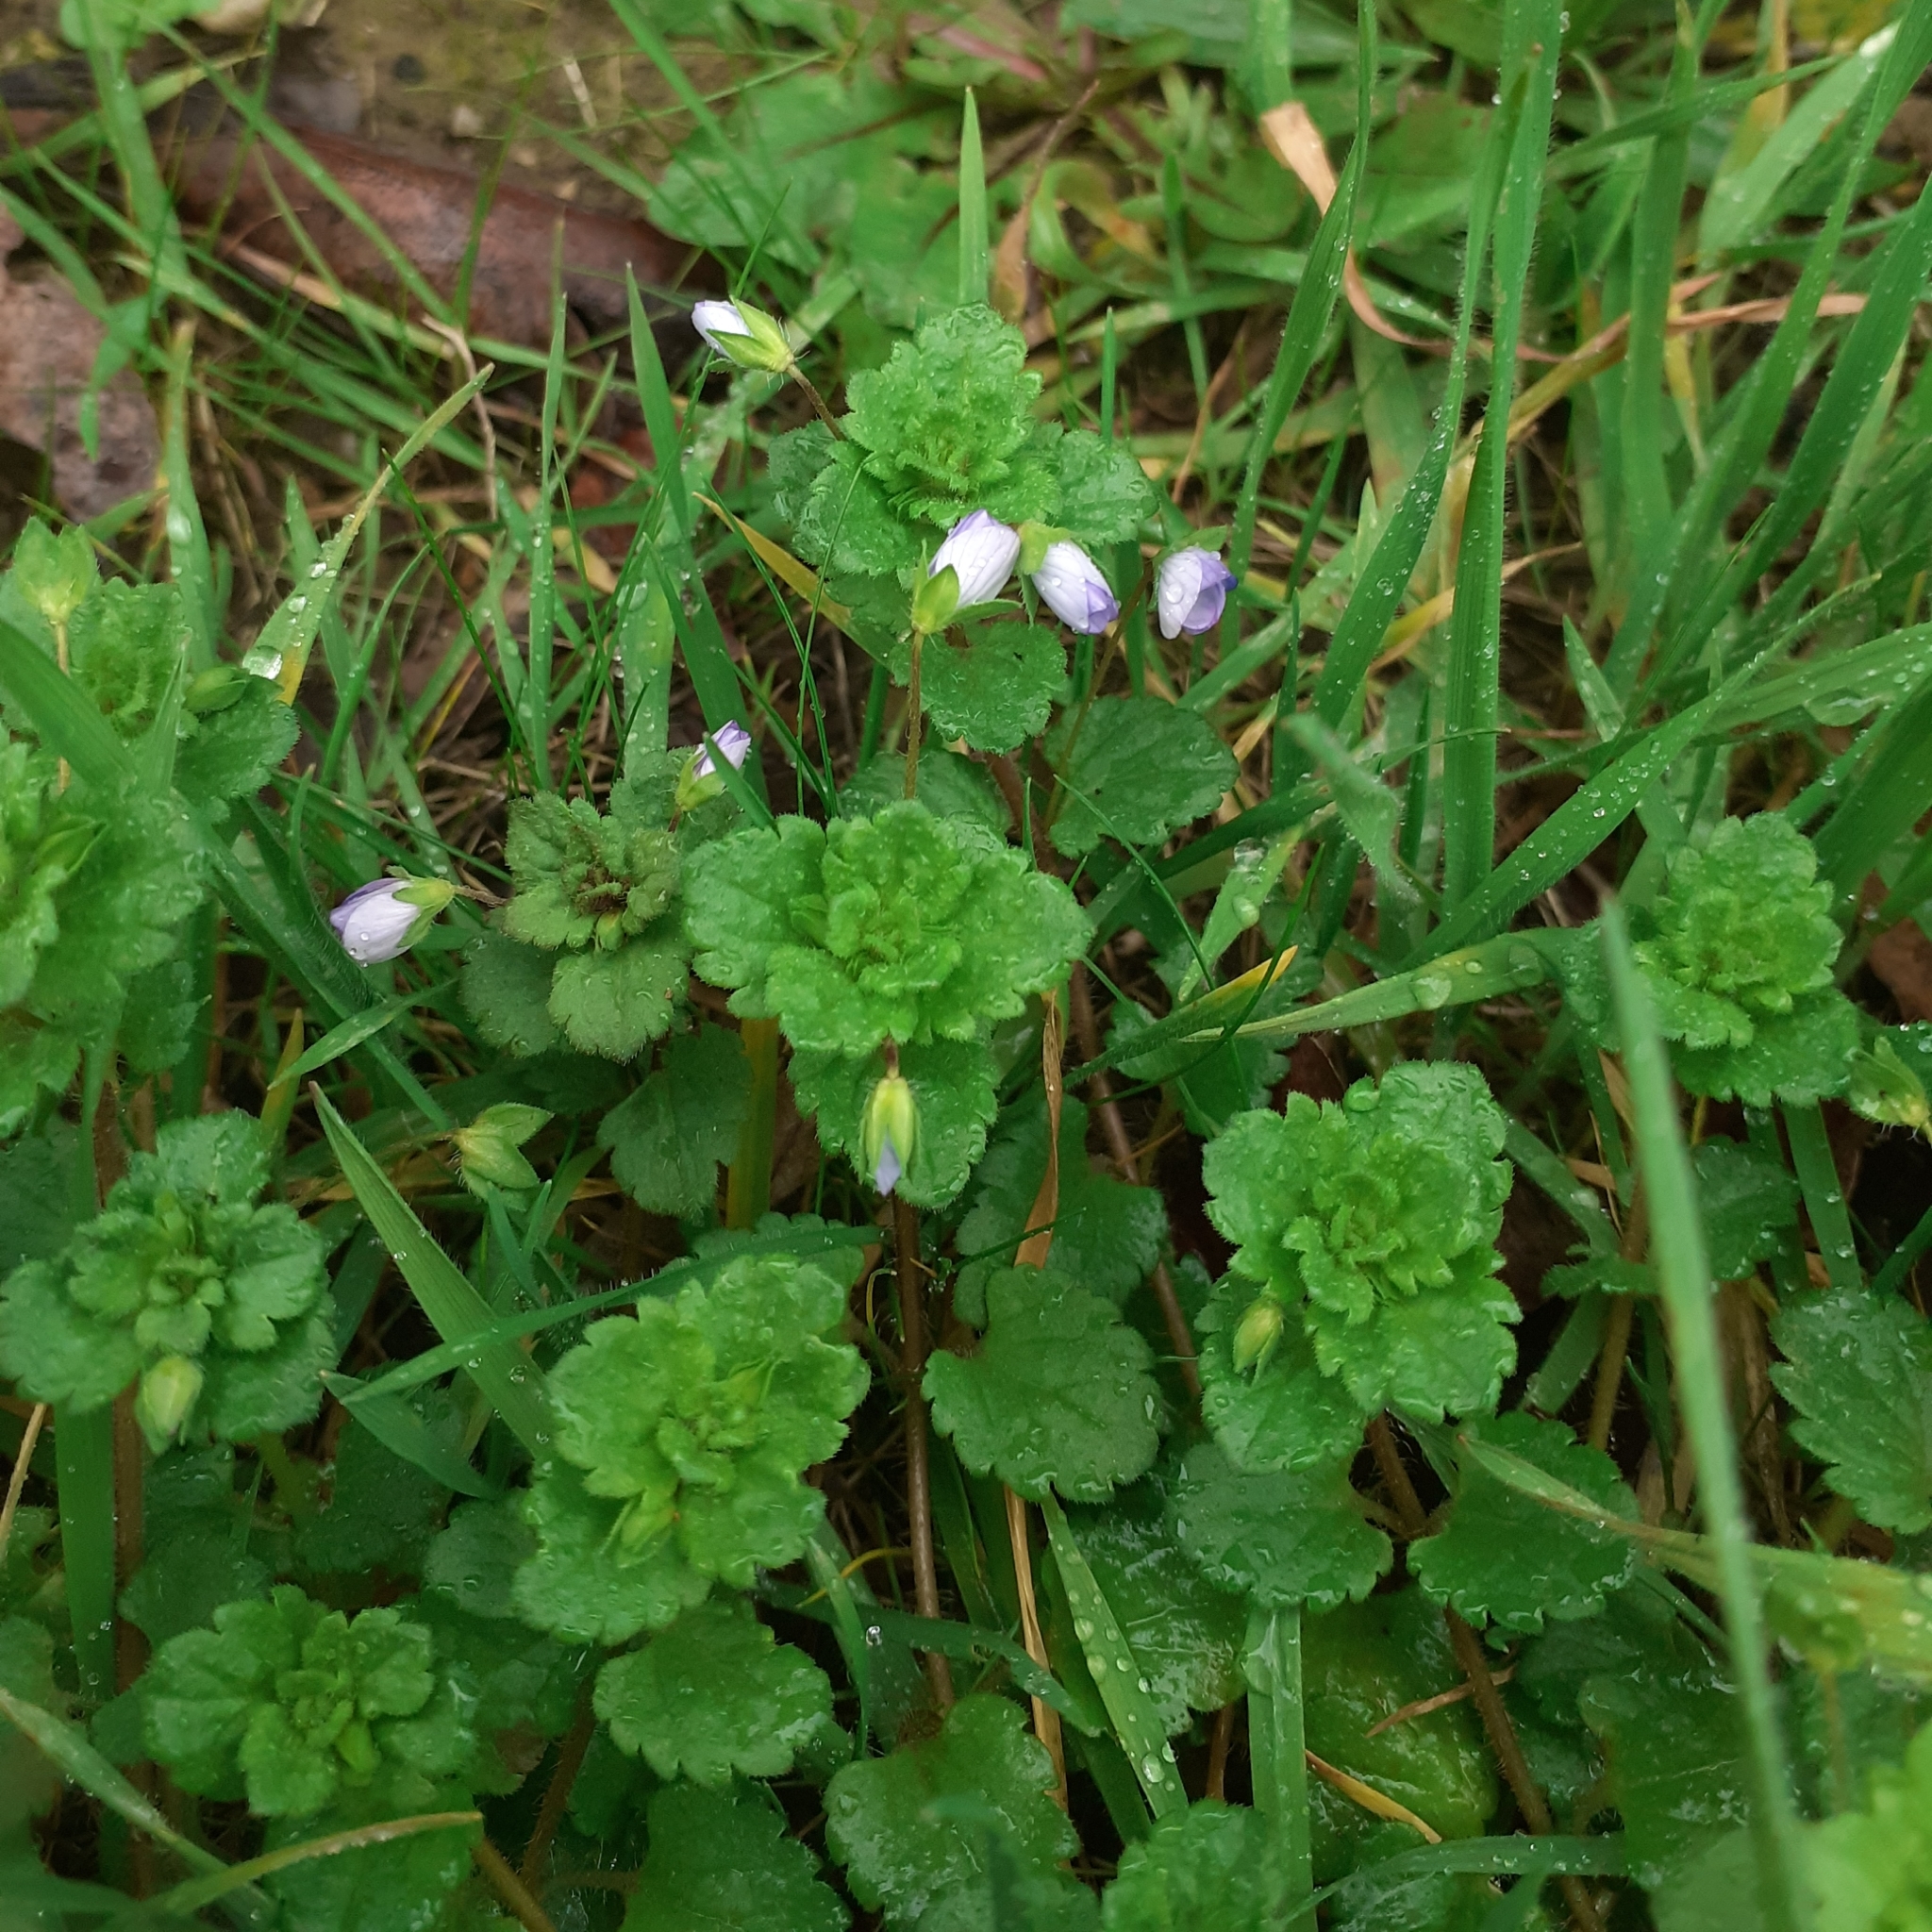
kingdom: Plantae
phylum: Tracheophyta
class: Magnoliopsida
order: Lamiales
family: Plantaginaceae
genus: Veronica
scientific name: Veronica persica
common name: Common field-speedwell
